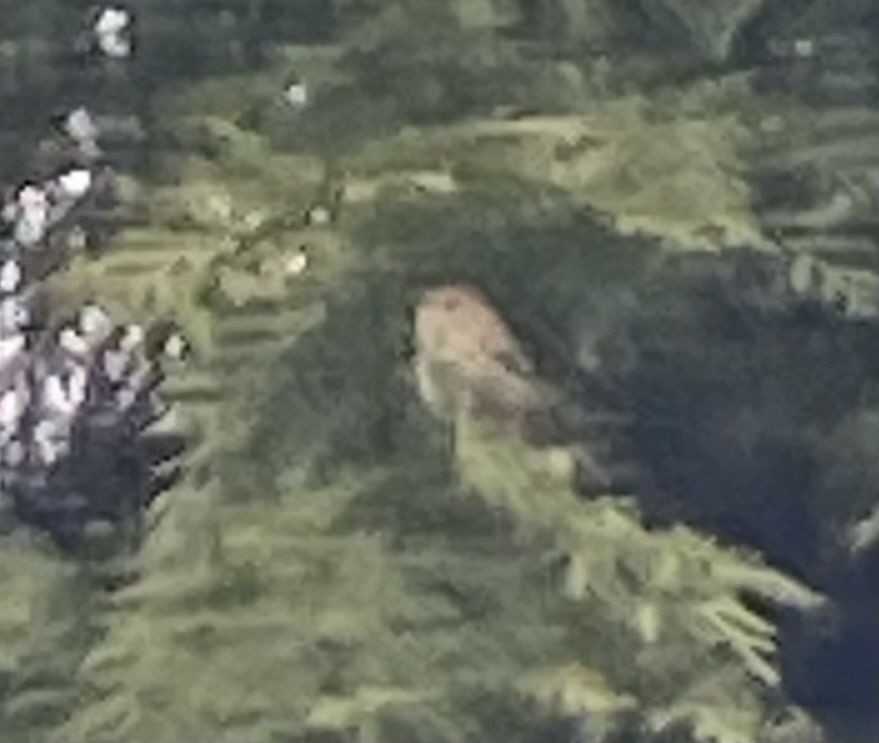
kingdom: Animalia
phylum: Chordata
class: Aves
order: Passeriformes
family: Regulidae
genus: Regulus
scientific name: Regulus regulus
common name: Goldcrest
